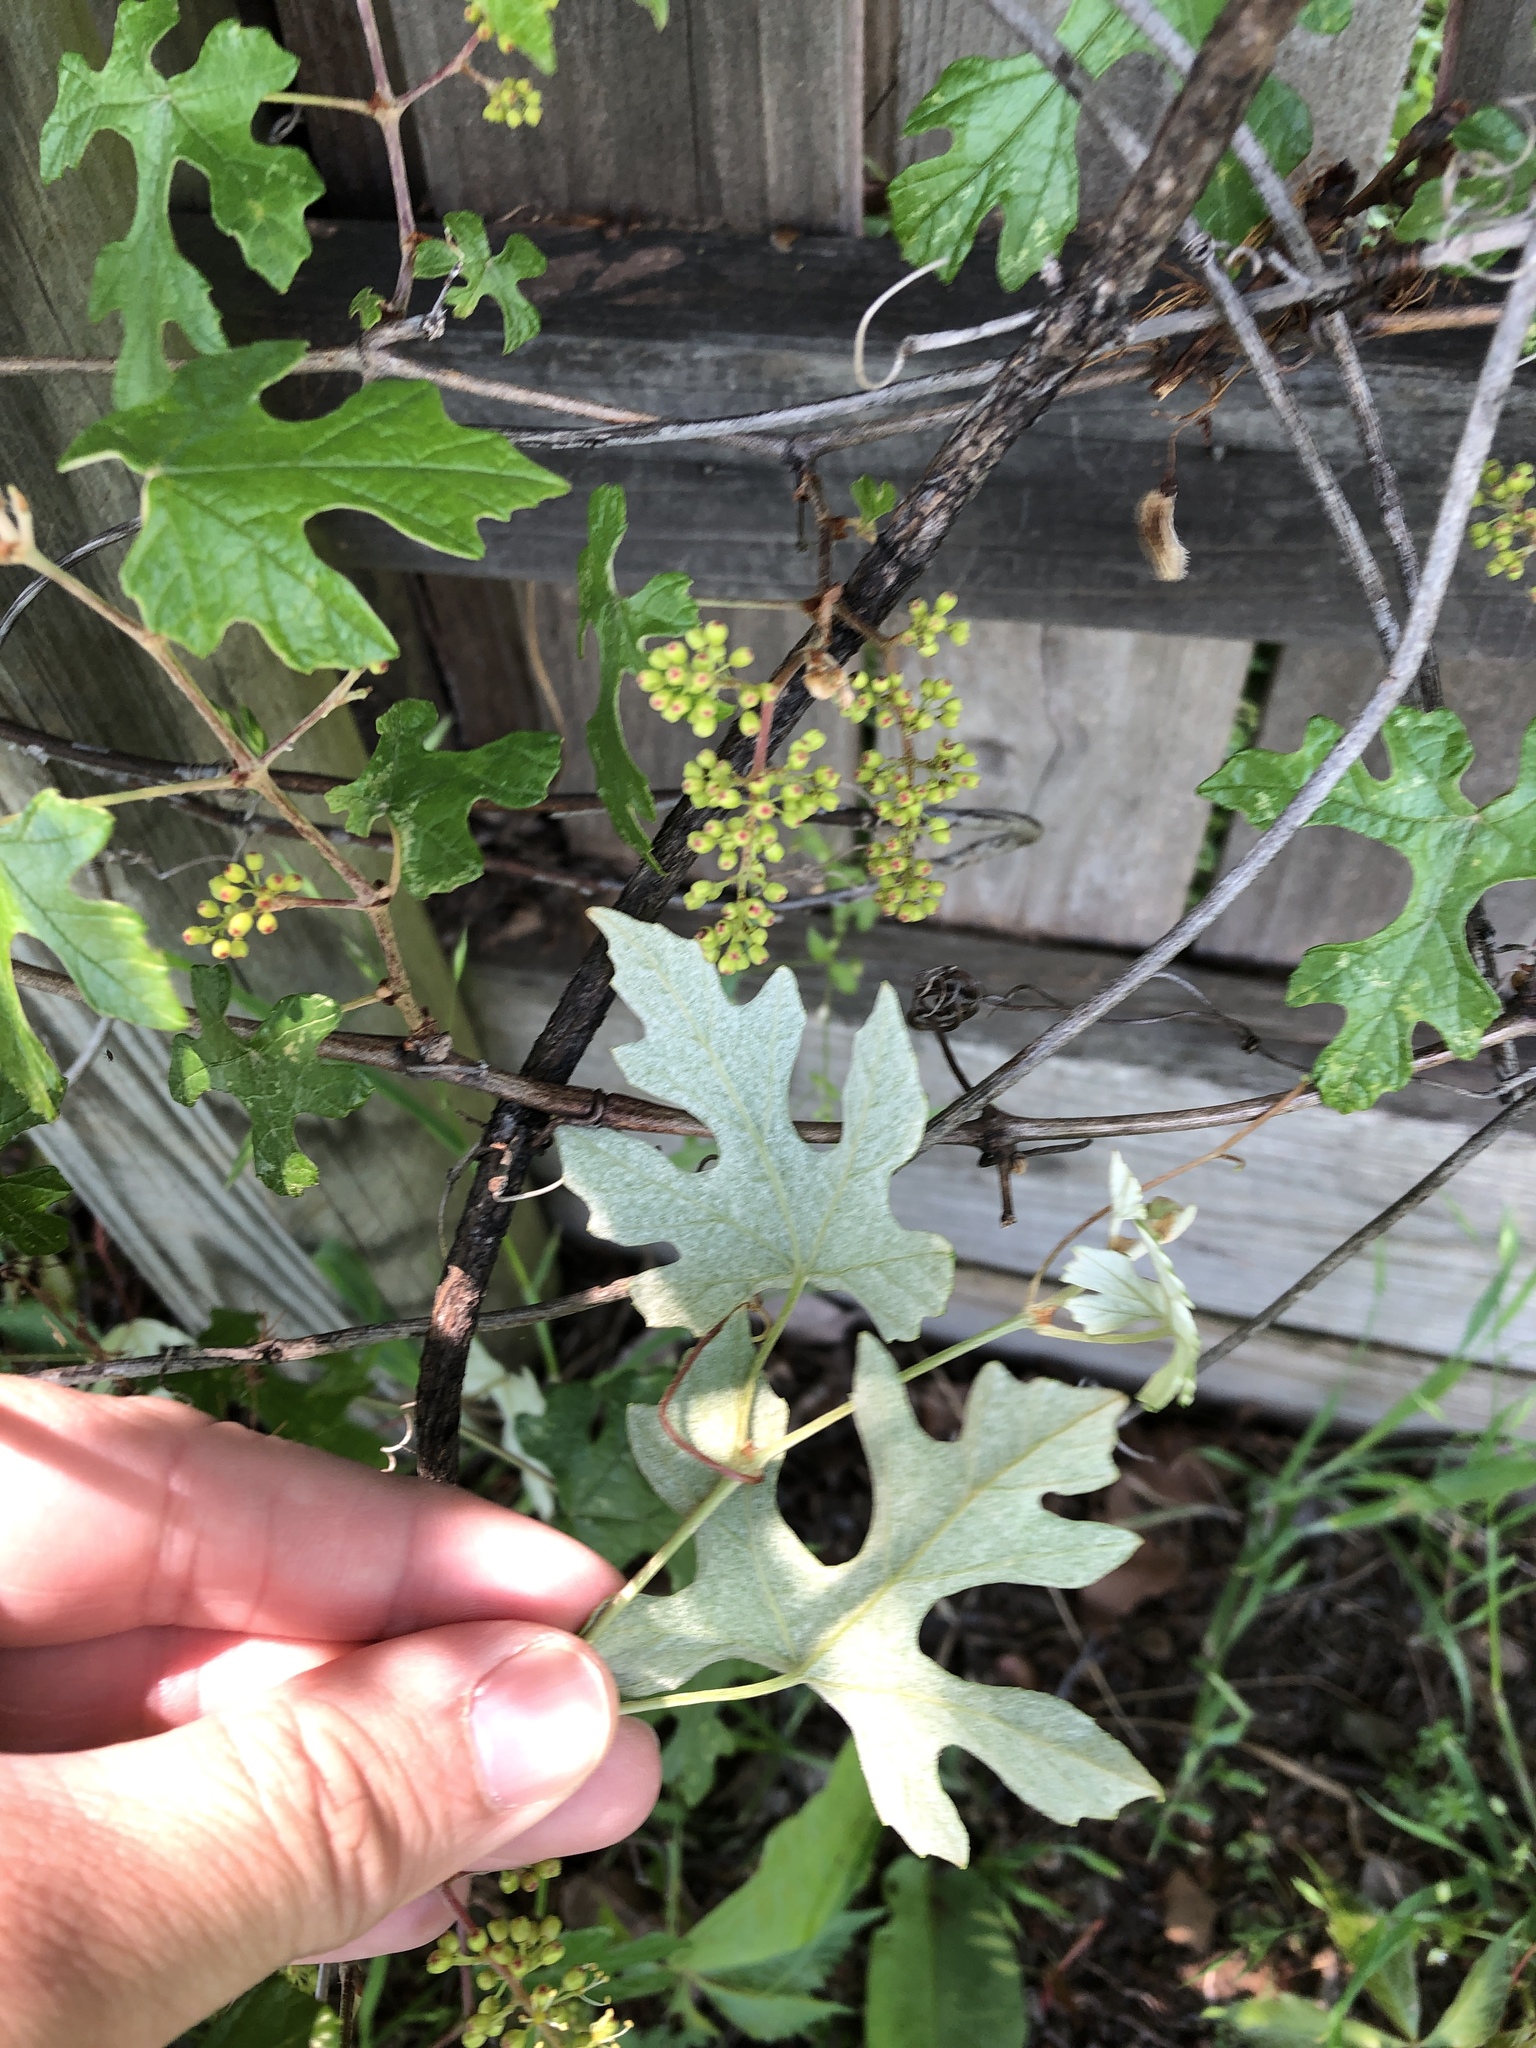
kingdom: Plantae
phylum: Tracheophyta
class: Magnoliopsida
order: Vitales
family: Vitaceae
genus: Vitis
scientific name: Vitis mustangensis
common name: Mustang grape
